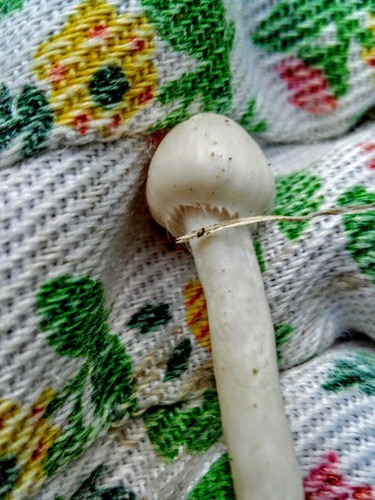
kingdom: Fungi
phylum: Basidiomycota
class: Agaricomycetes
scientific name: Agaricomycetes
